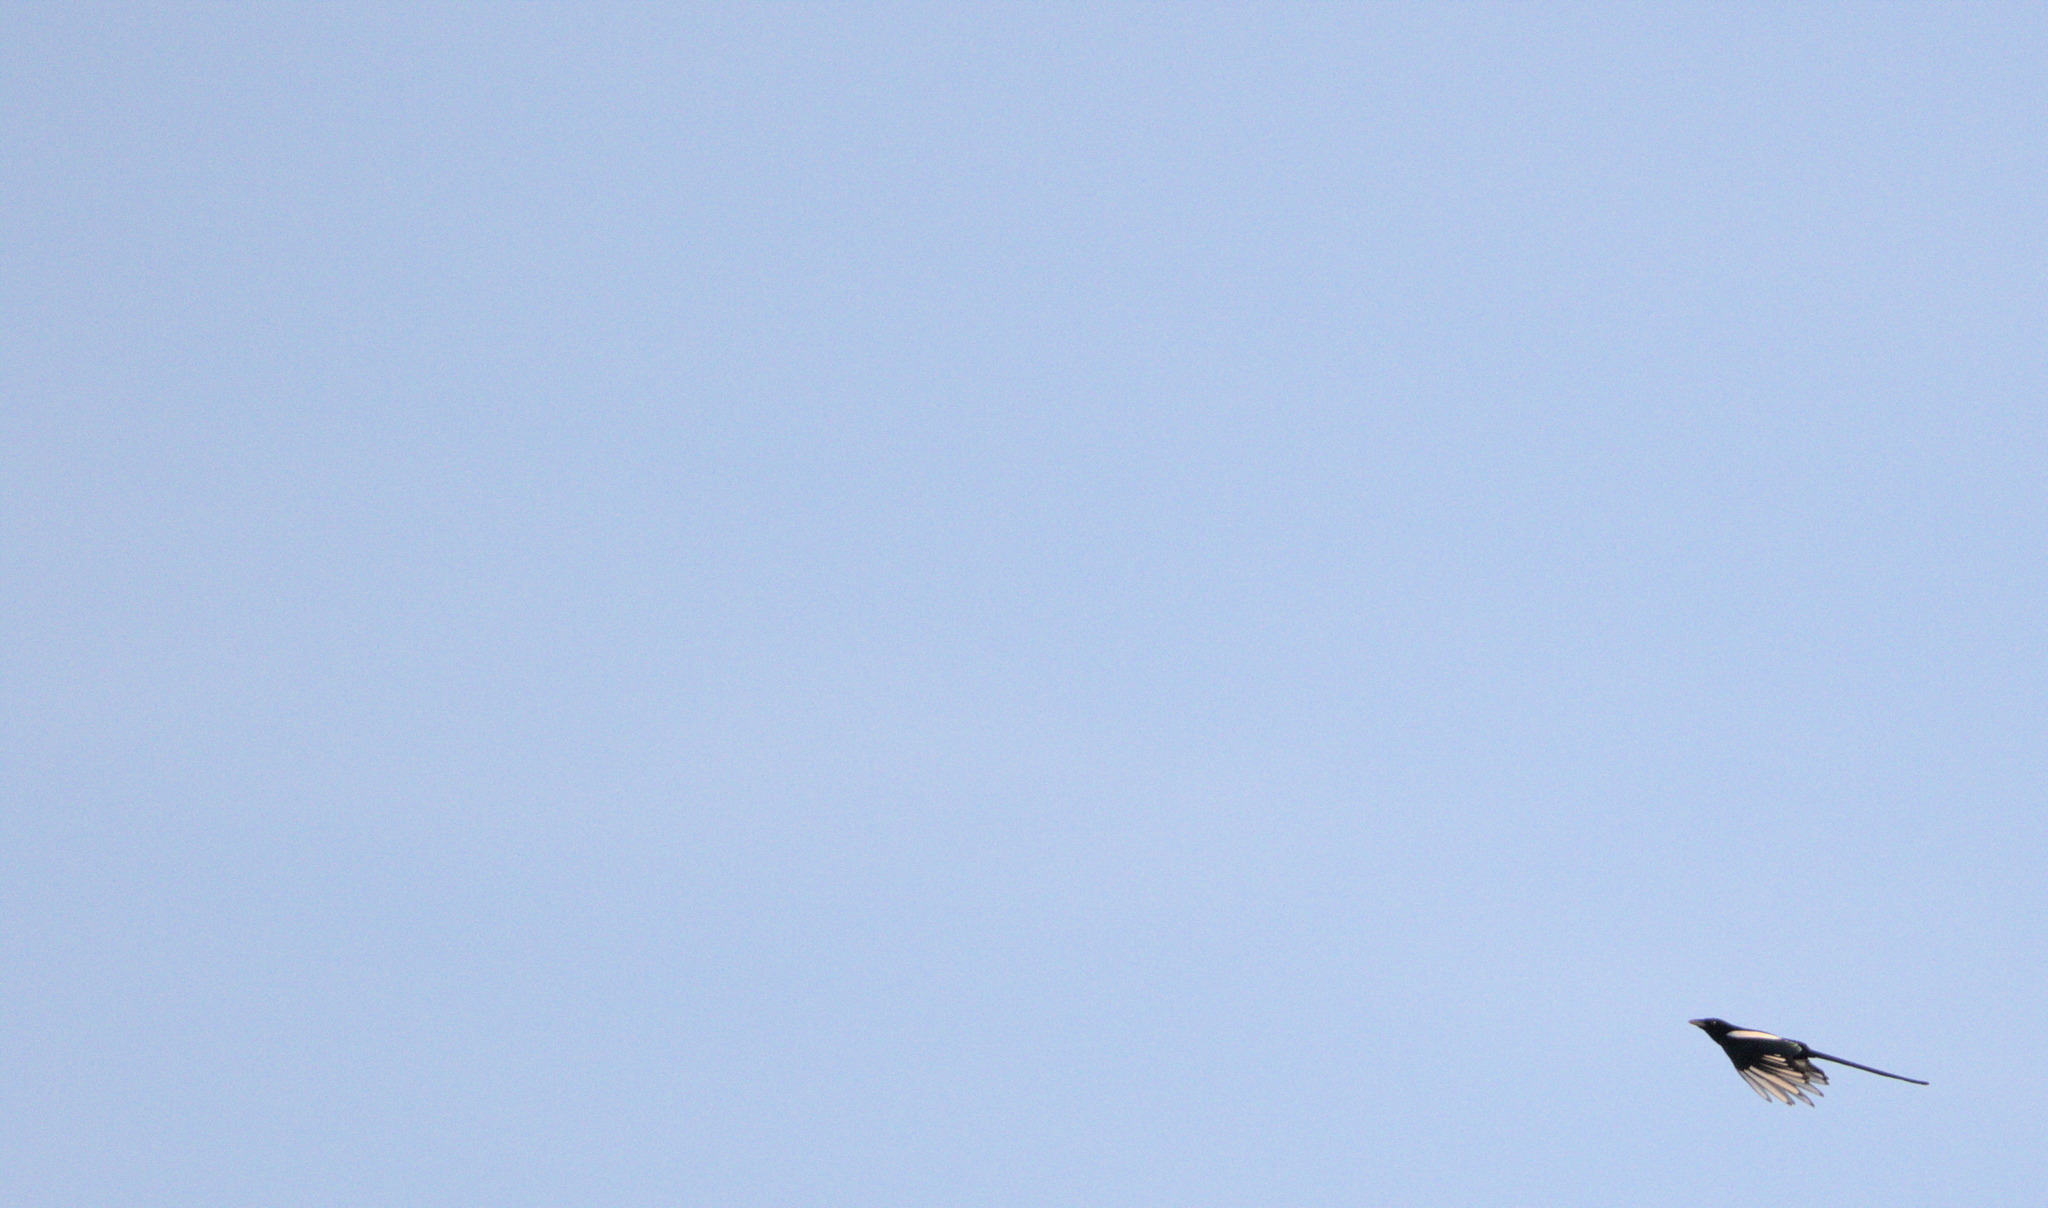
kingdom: Animalia
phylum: Chordata
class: Aves
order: Passeriformes
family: Corvidae
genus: Pica
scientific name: Pica hudsonia
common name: Black-billed magpie
